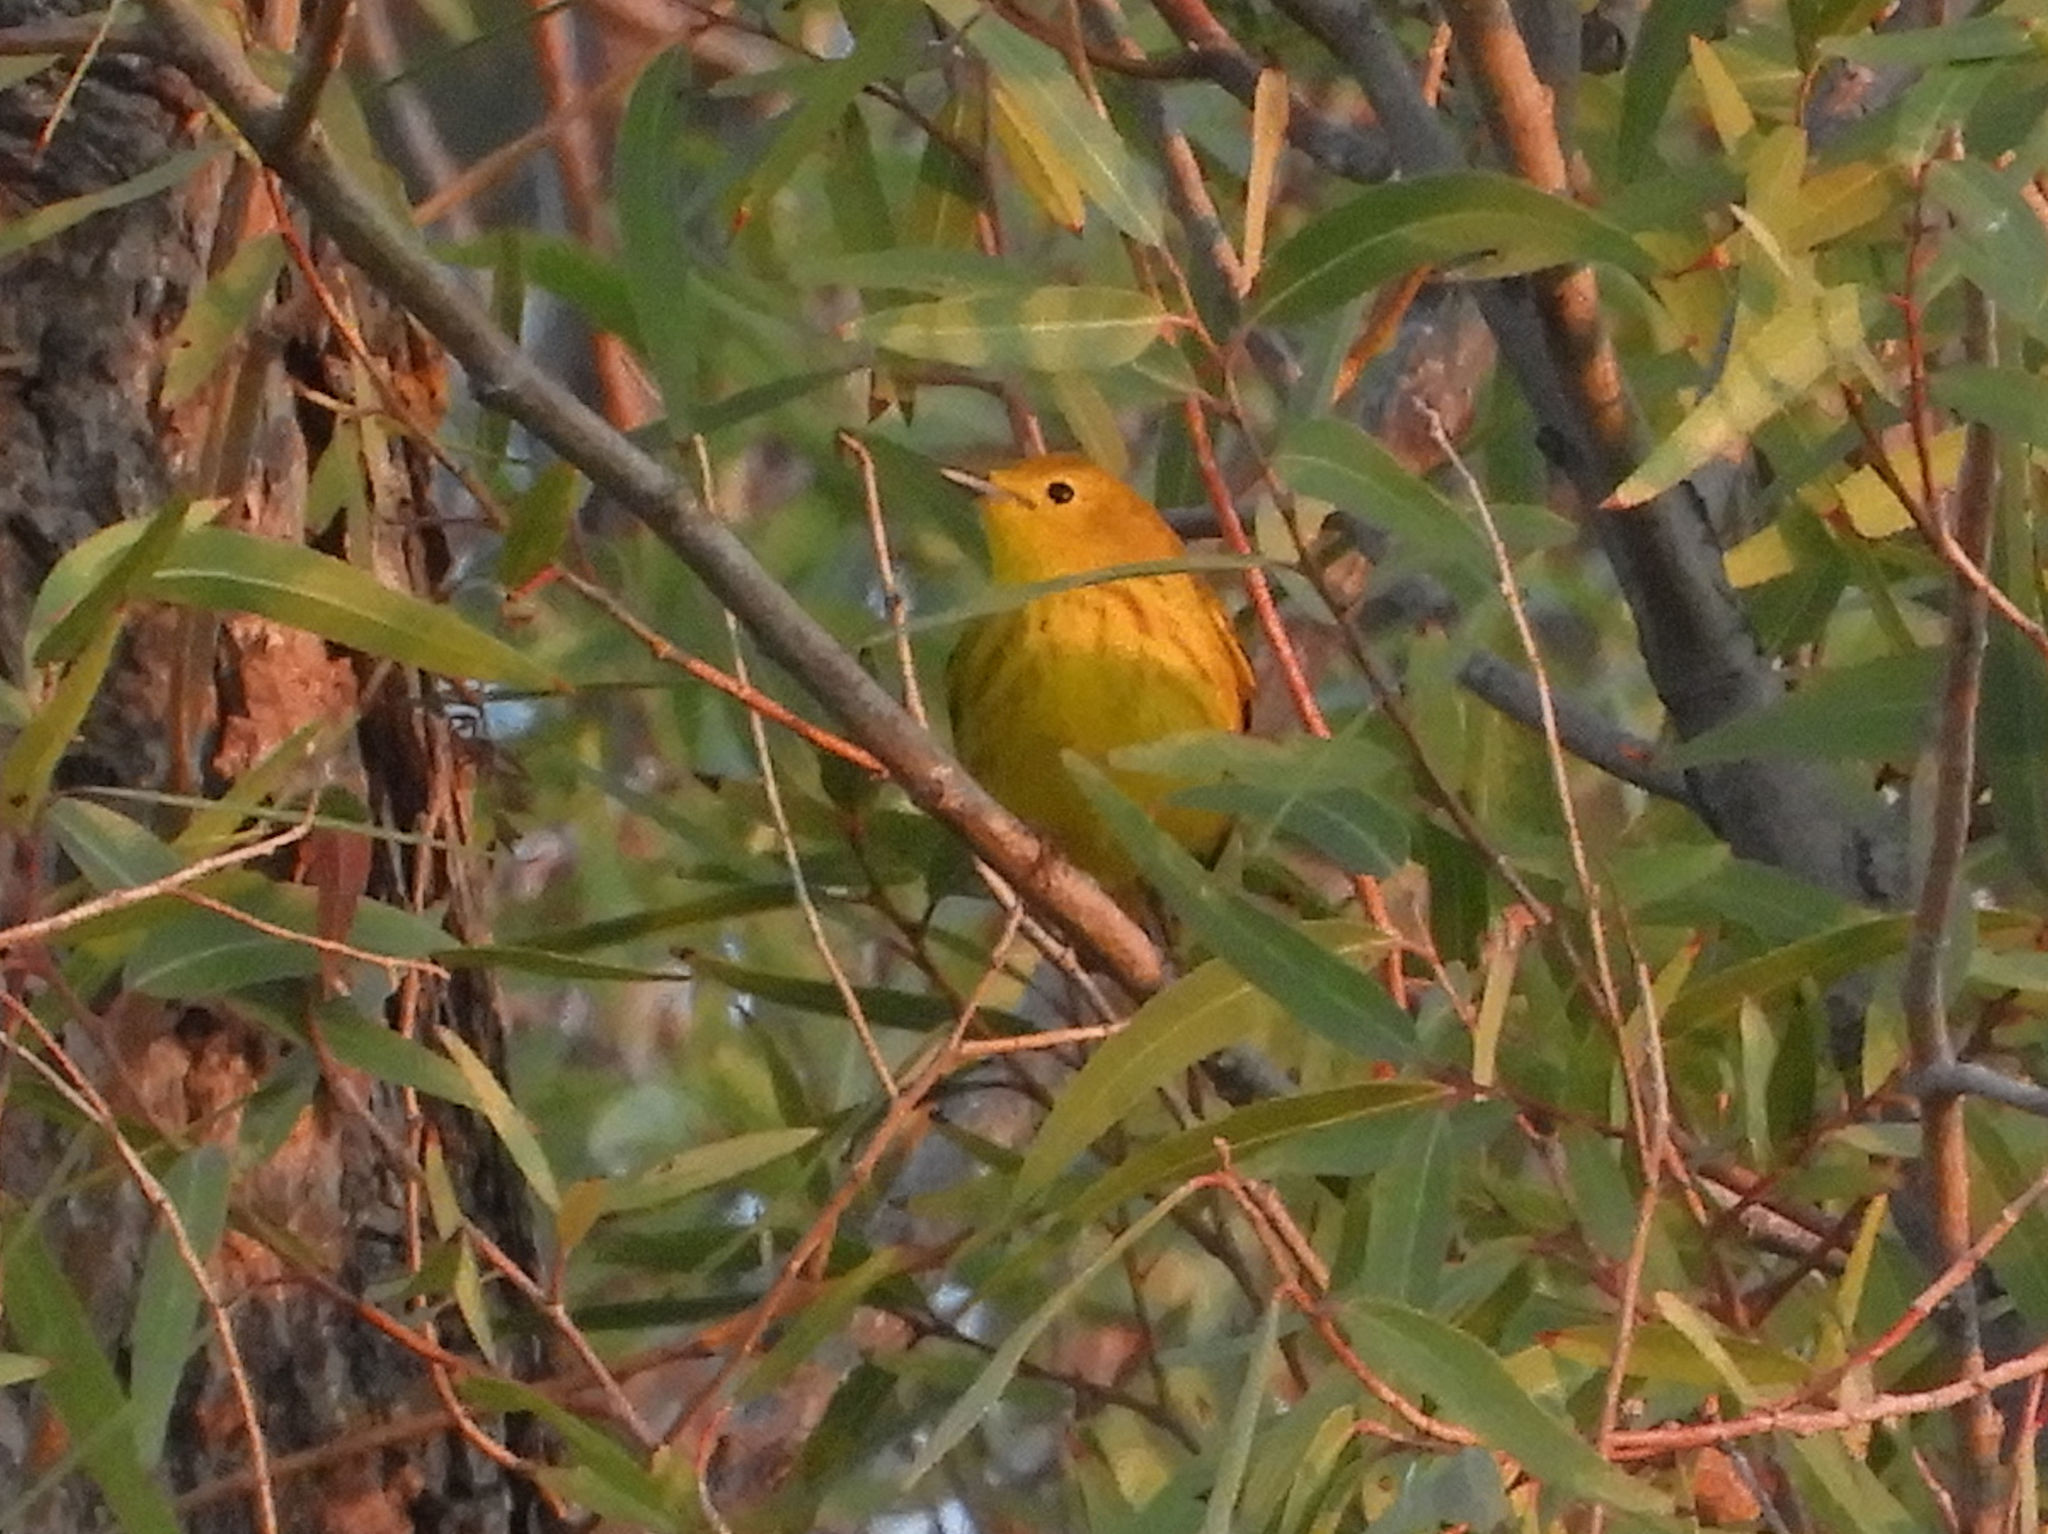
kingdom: Animalia
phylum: Chordata
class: Aves
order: Passeriformes
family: Parulidae
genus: Setophaga
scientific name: Setophaga petechia
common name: Yellow warbler
